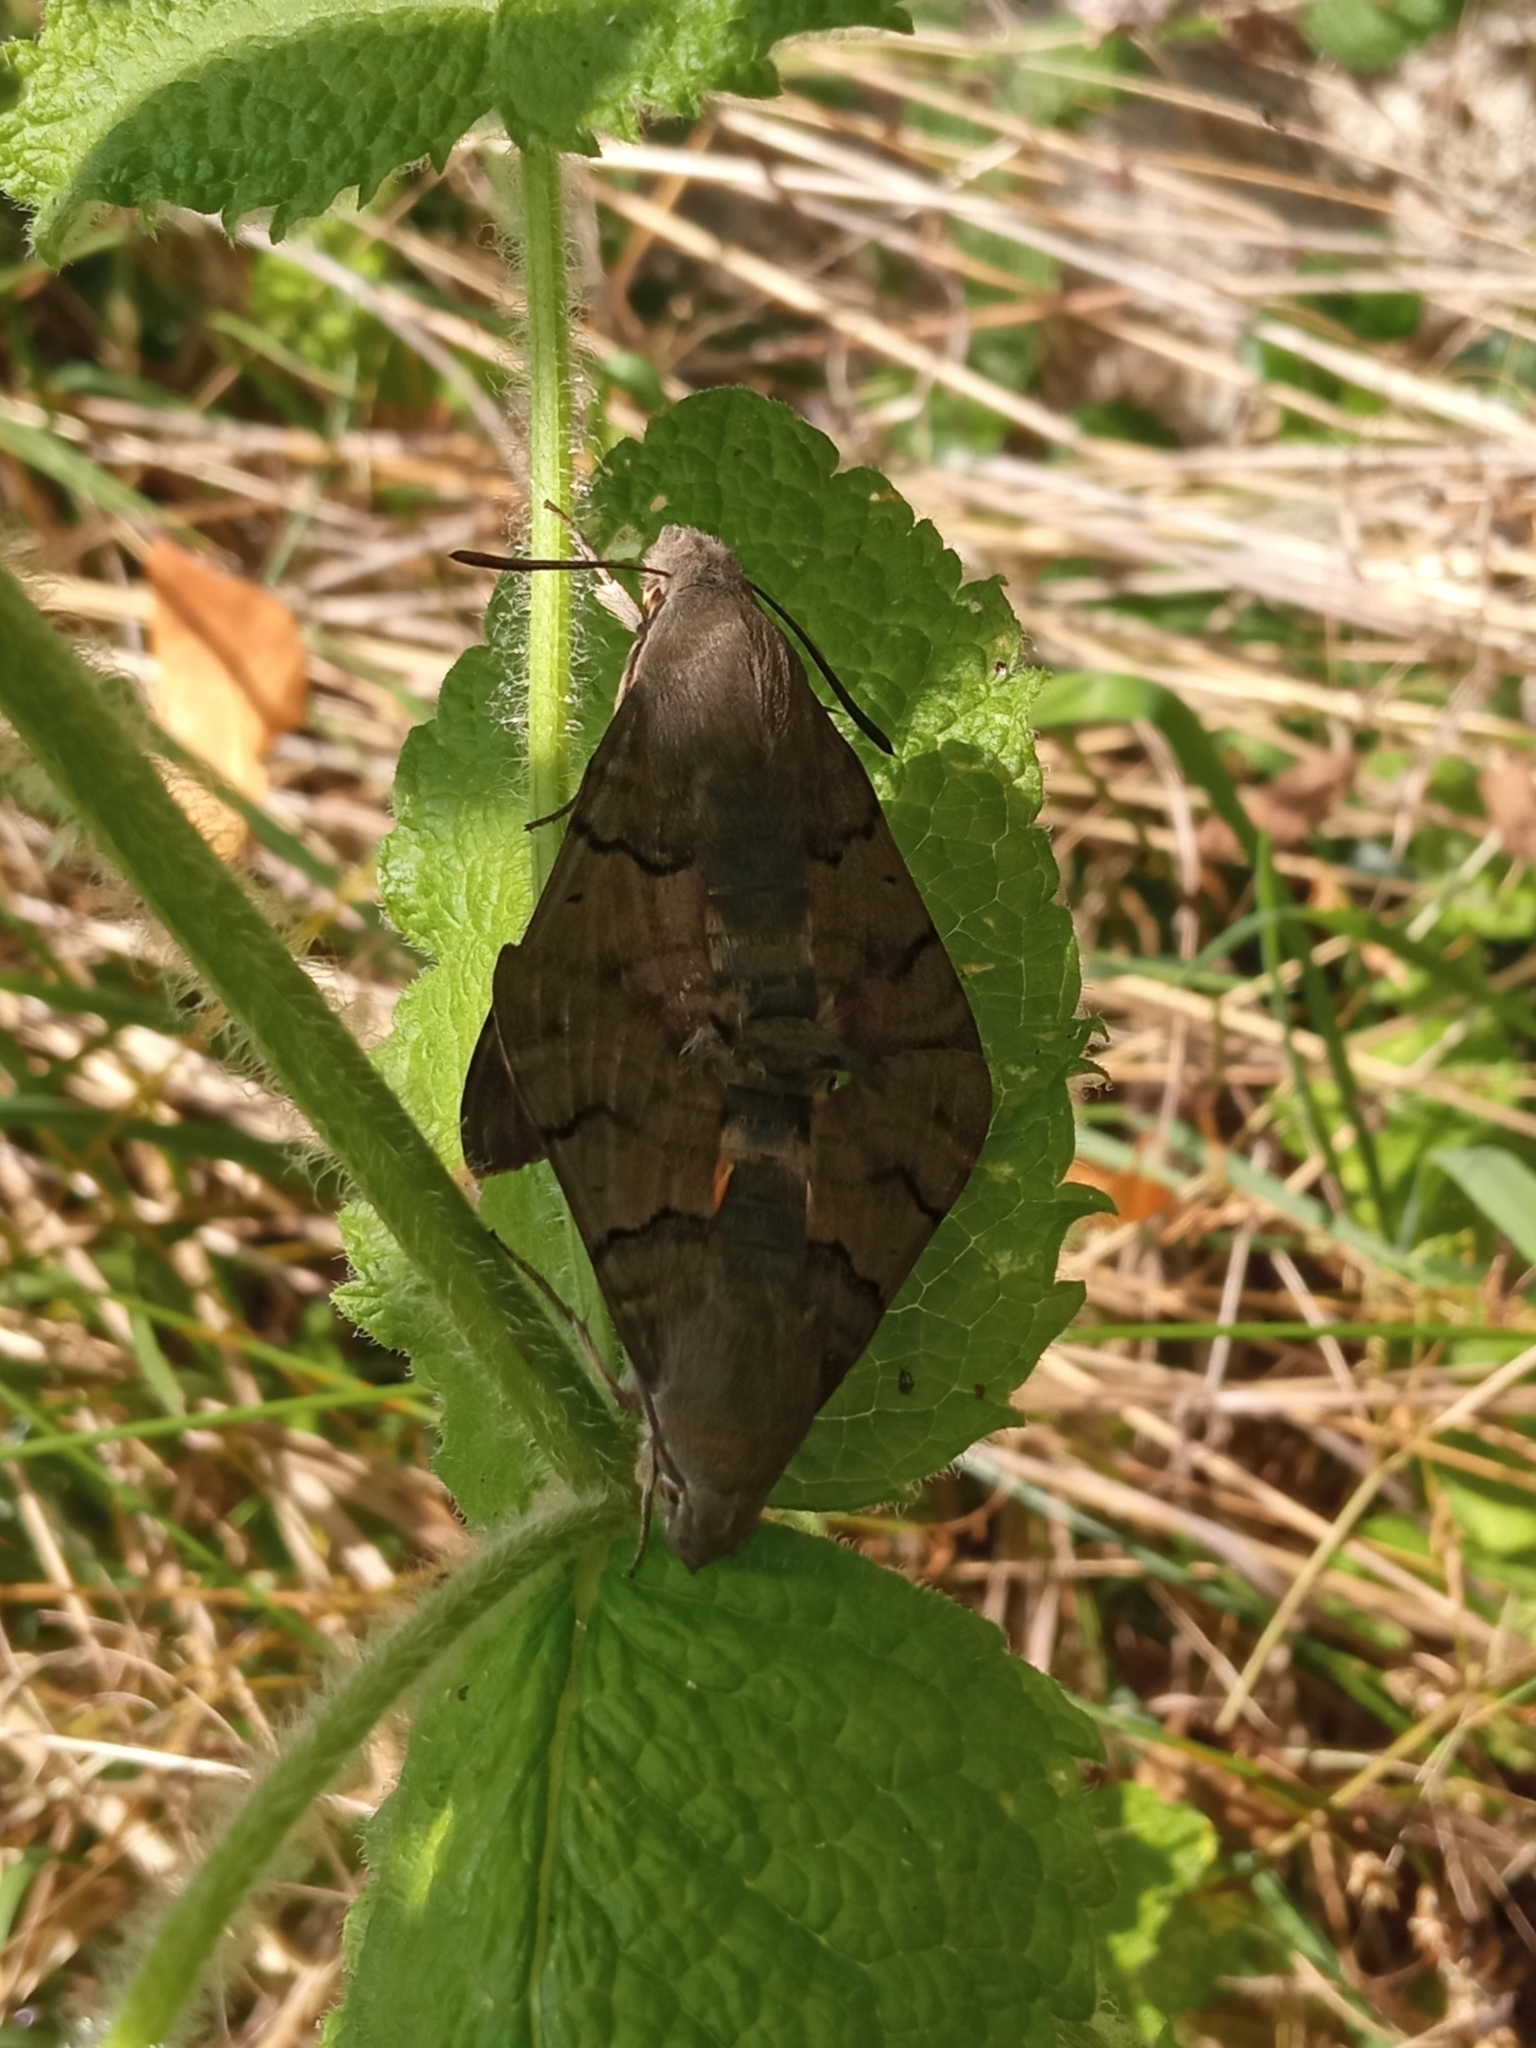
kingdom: Animalia
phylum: Arthropoda
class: Insecta
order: Lepidoptera
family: Sphingidae
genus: Macroglossum
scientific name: Macroglossum stellatarum
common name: Humming-bird hawk-moth
